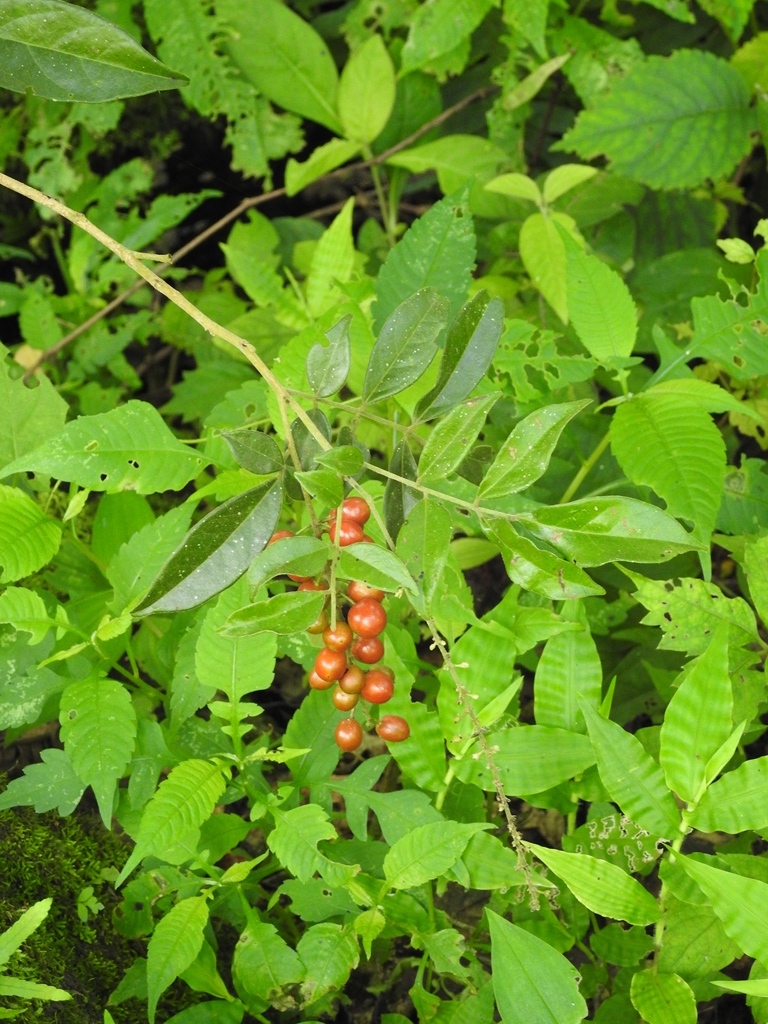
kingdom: Plantae
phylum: Tracheophyta
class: Magnoliopsida
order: Picramniales
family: Picramniaceae
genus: Picramnia
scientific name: Picramnia deflexa
